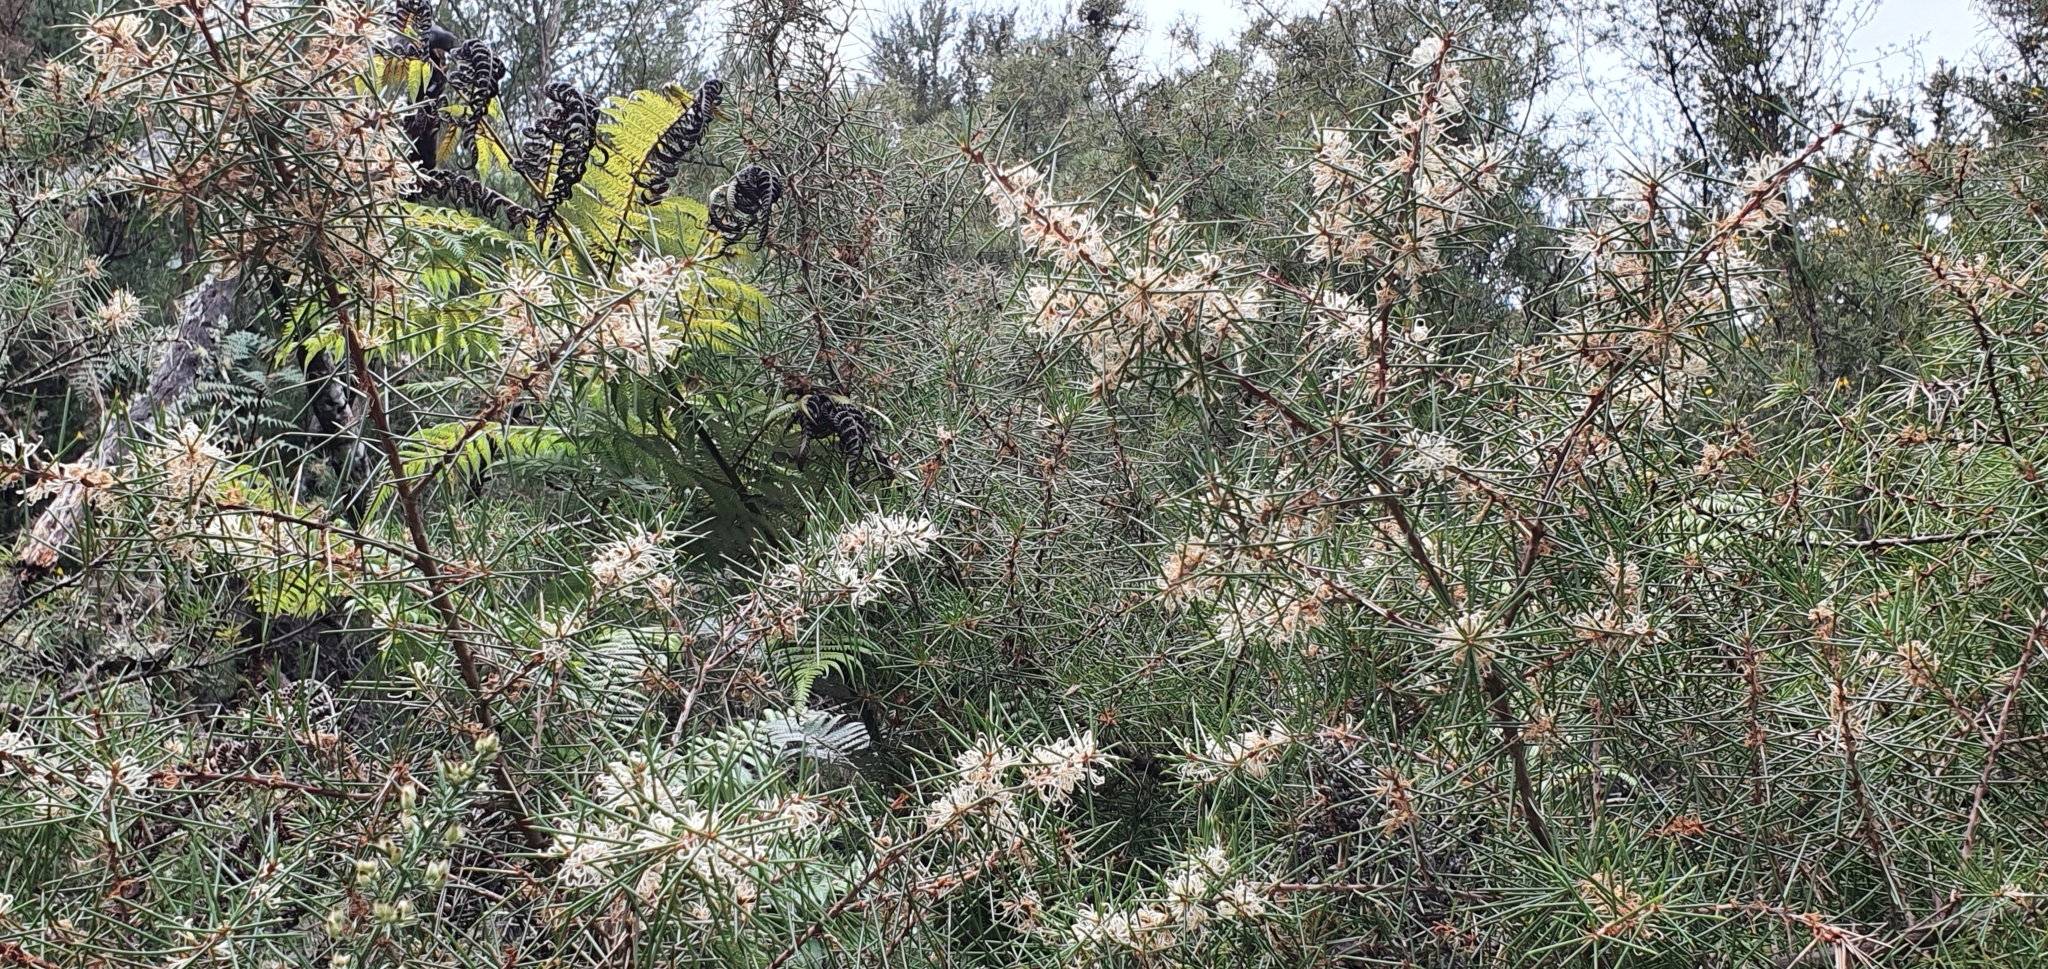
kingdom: Plantae
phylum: Tracheophyta
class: Magnoliopsida
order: Proteales
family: Proteaceae
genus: Hakea
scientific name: Hakea decurrens
